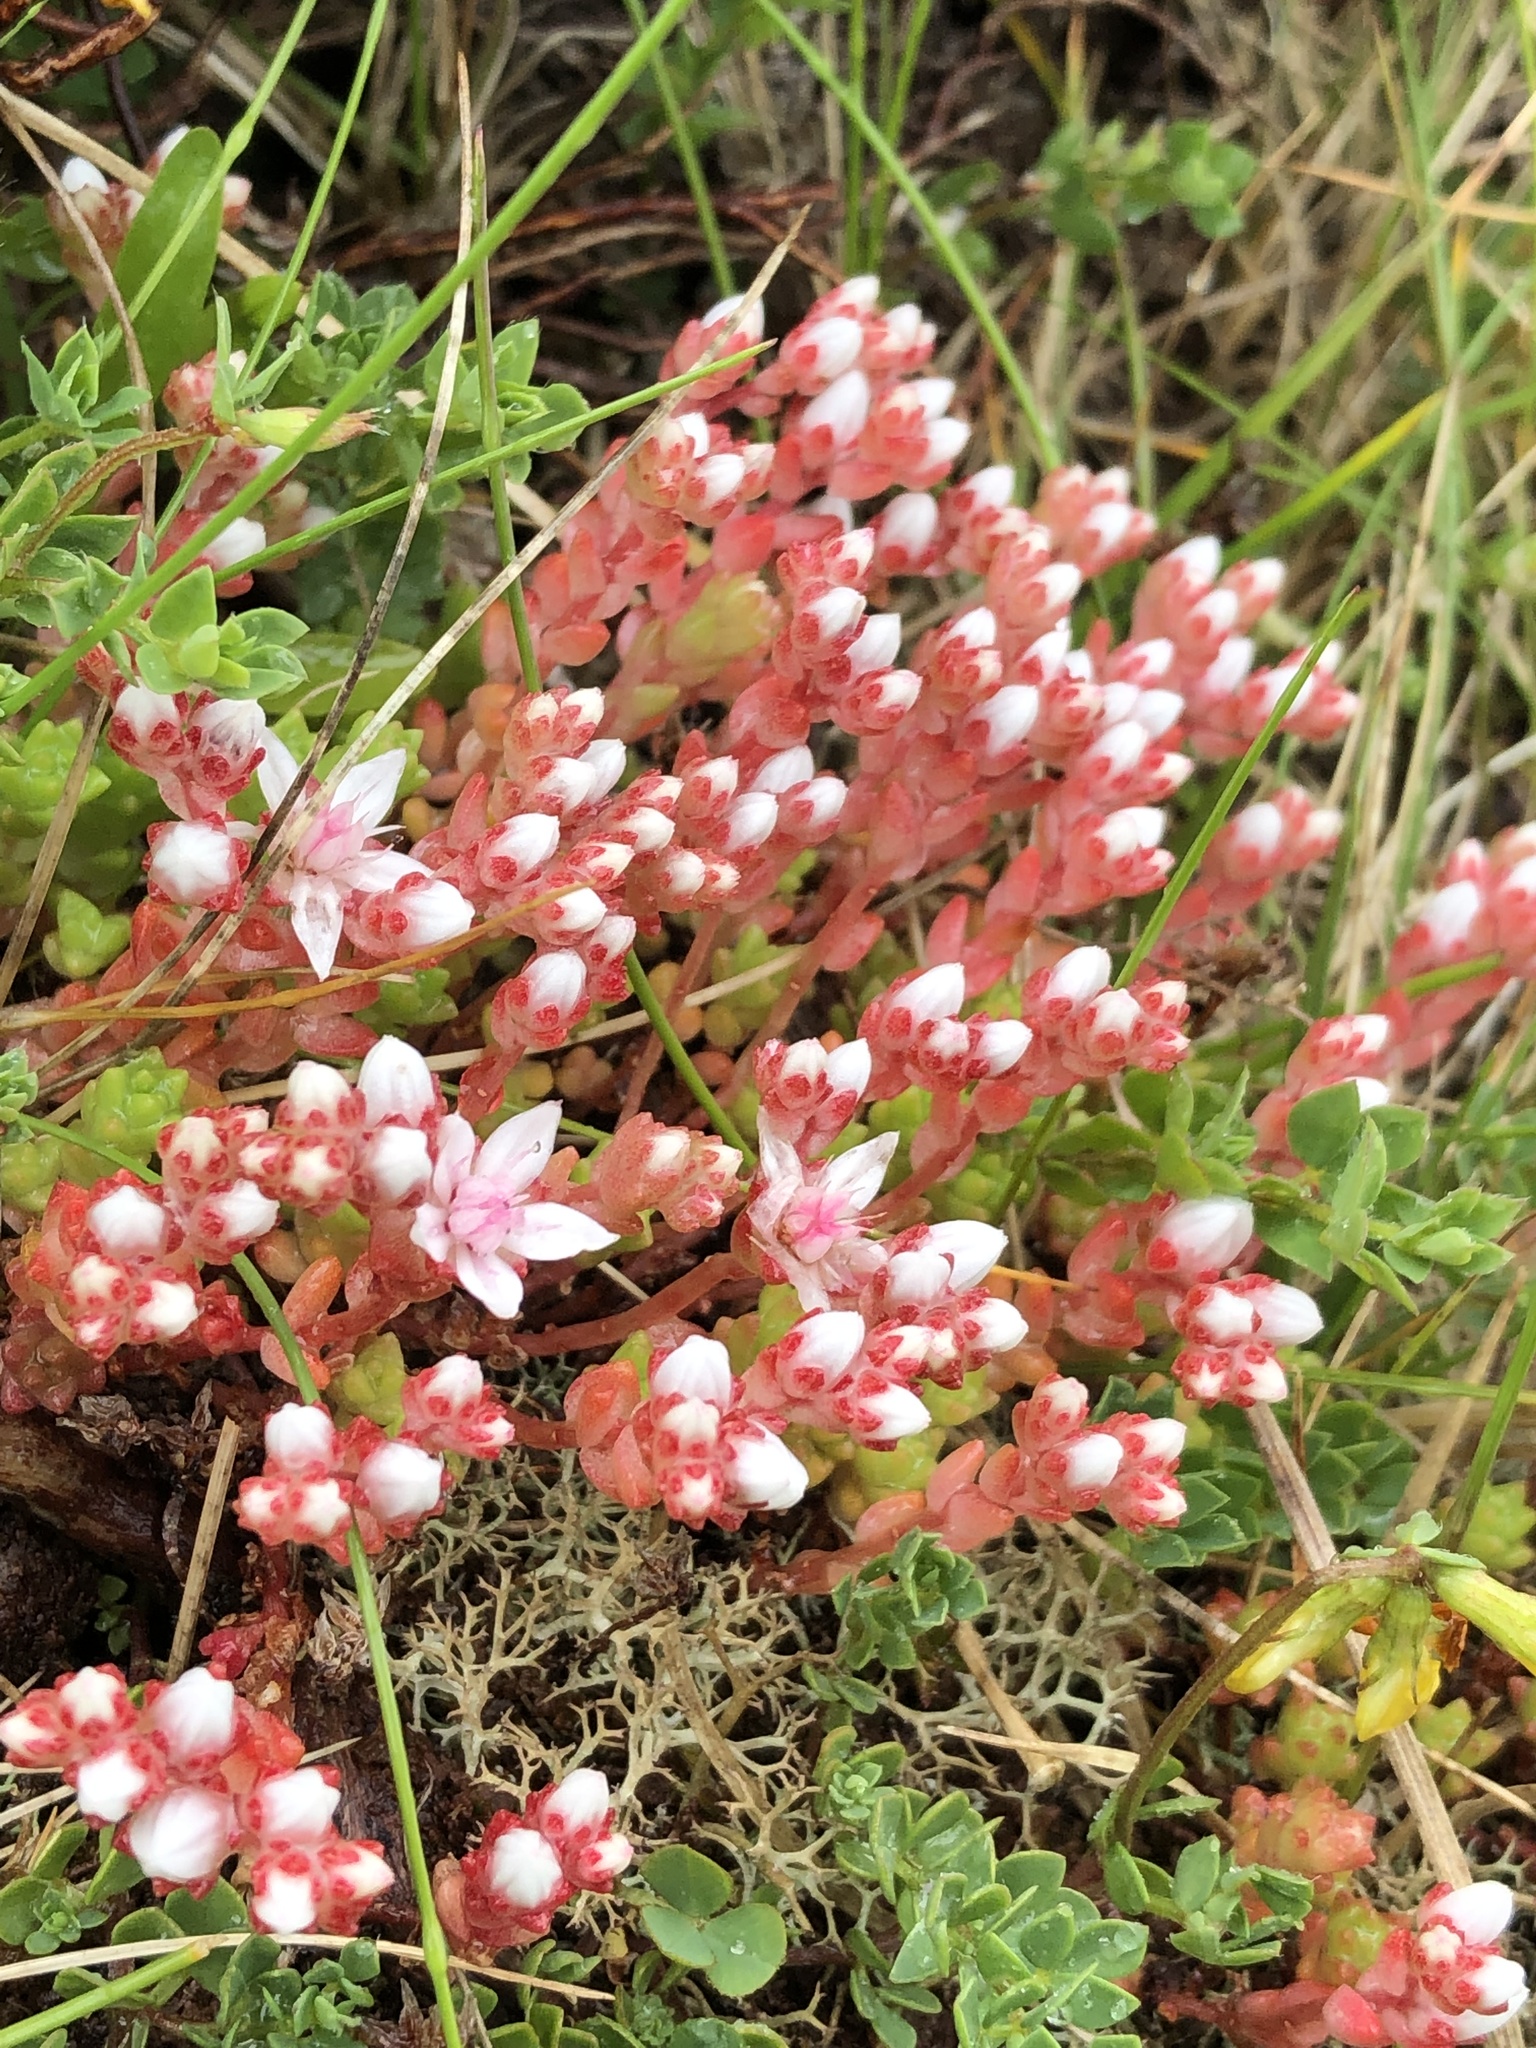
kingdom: Plantae
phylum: Tracheophyta
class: Magnoliopsida
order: Saxifragales
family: Crassulaceae
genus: Sedum
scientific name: Sedum anglicum
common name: English stonecrop
